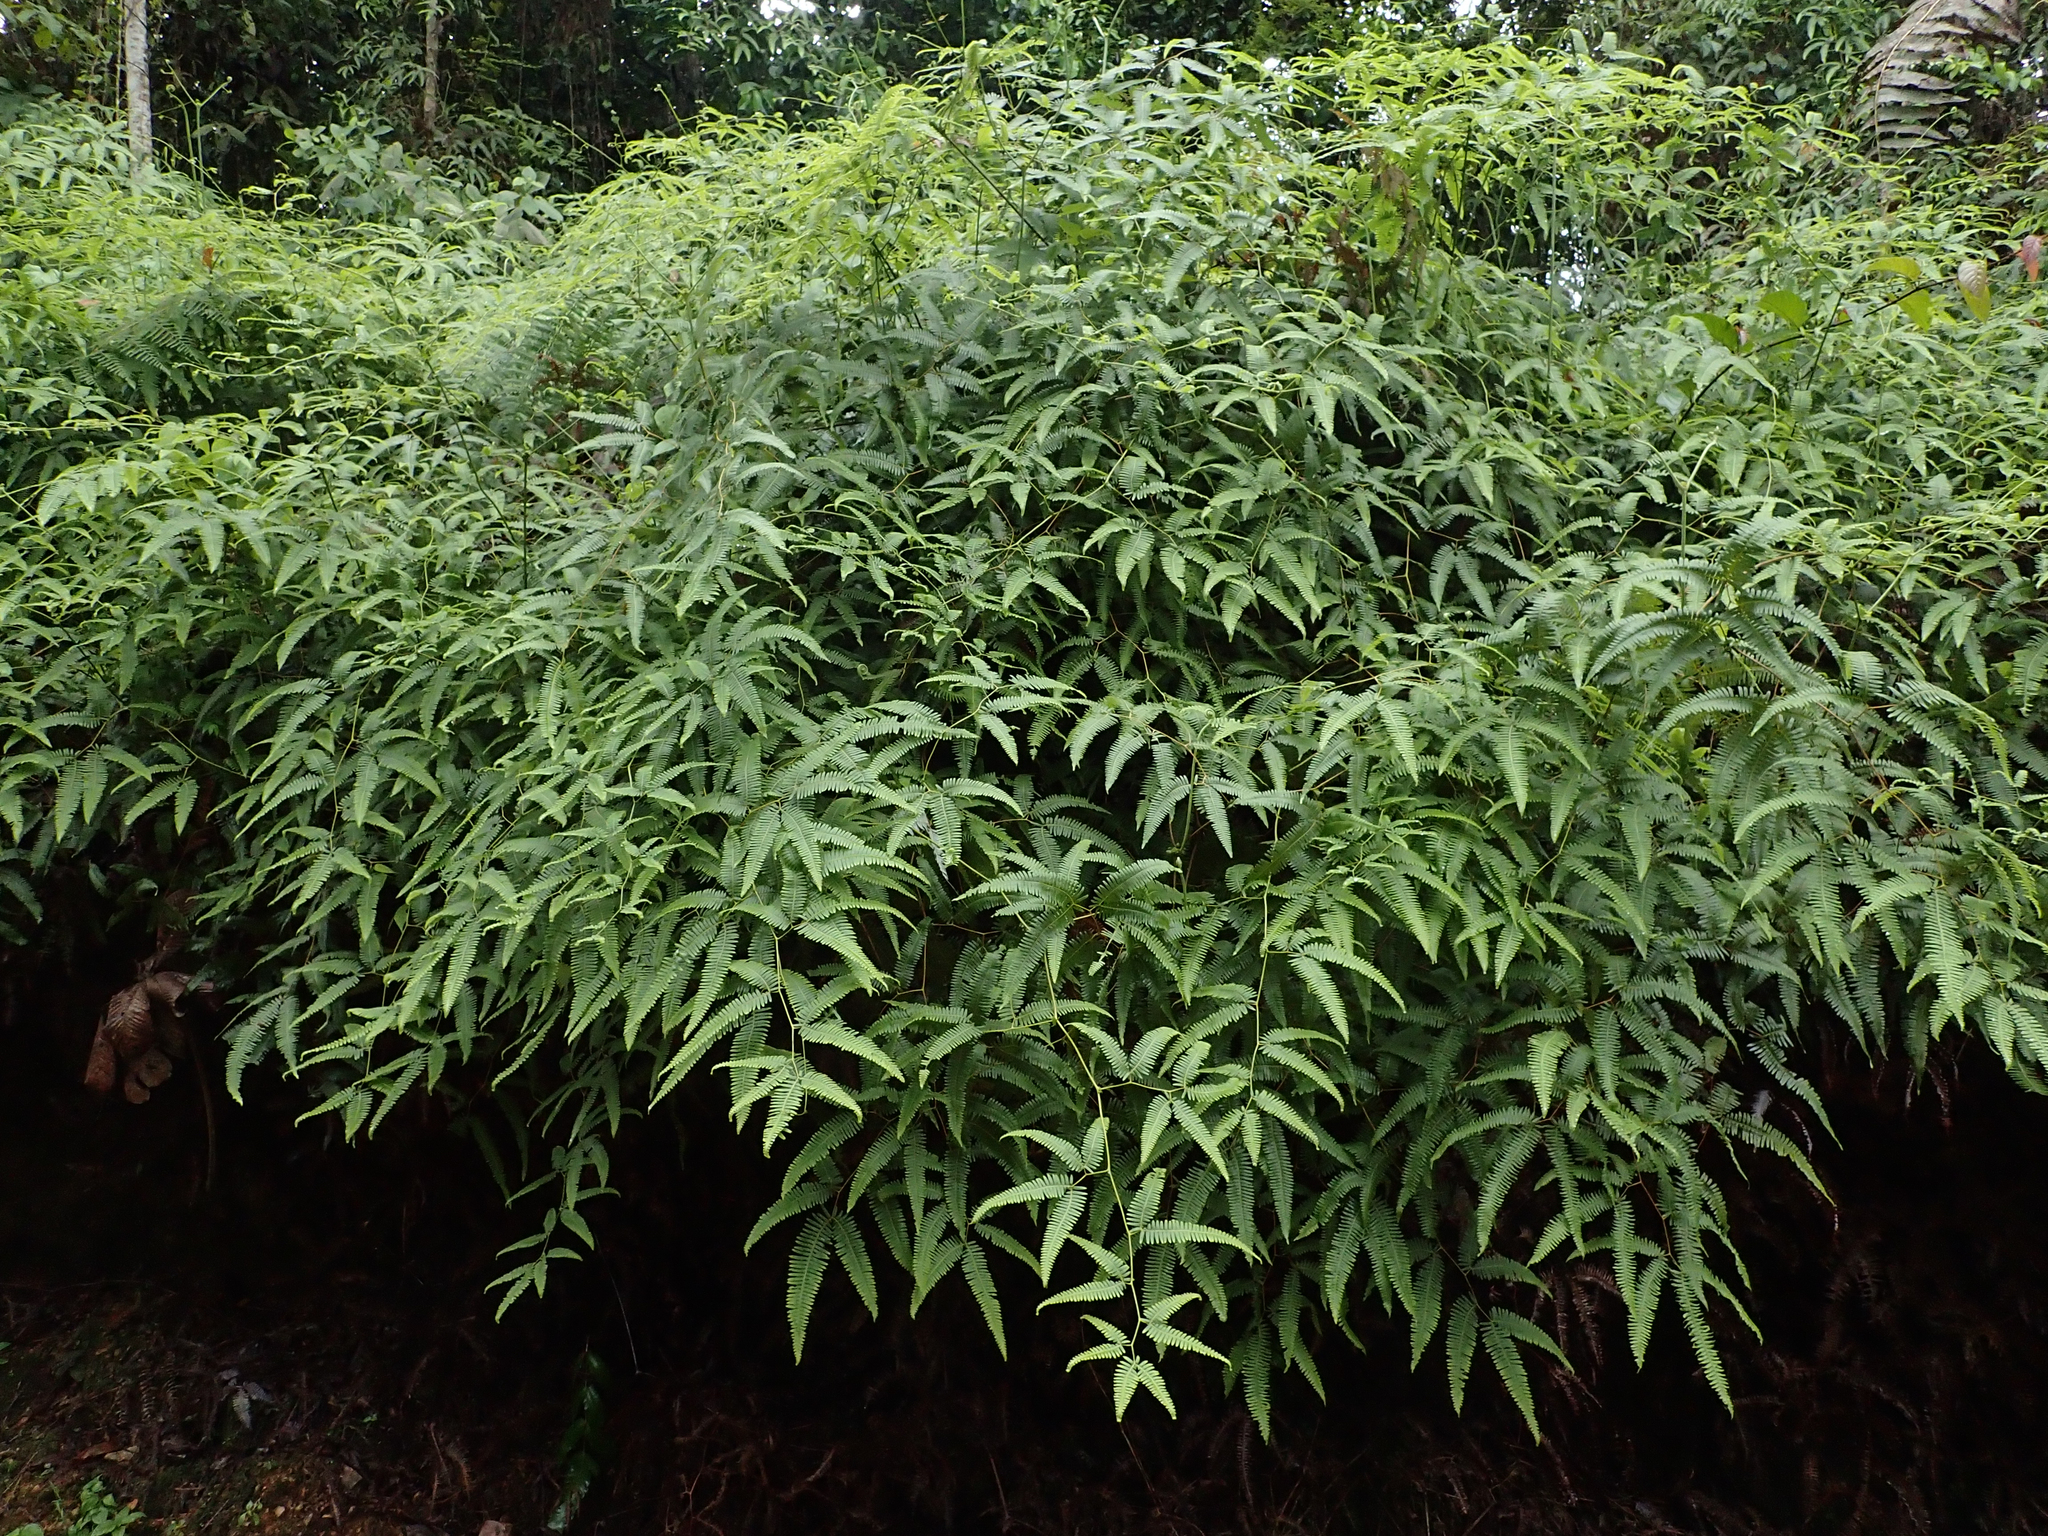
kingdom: Plantae
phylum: Tracheophyta
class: Polypodiopsida
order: Gleicheniales
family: Gleicheniaceae
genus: Gleichenella
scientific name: Gleichenella pectinata
